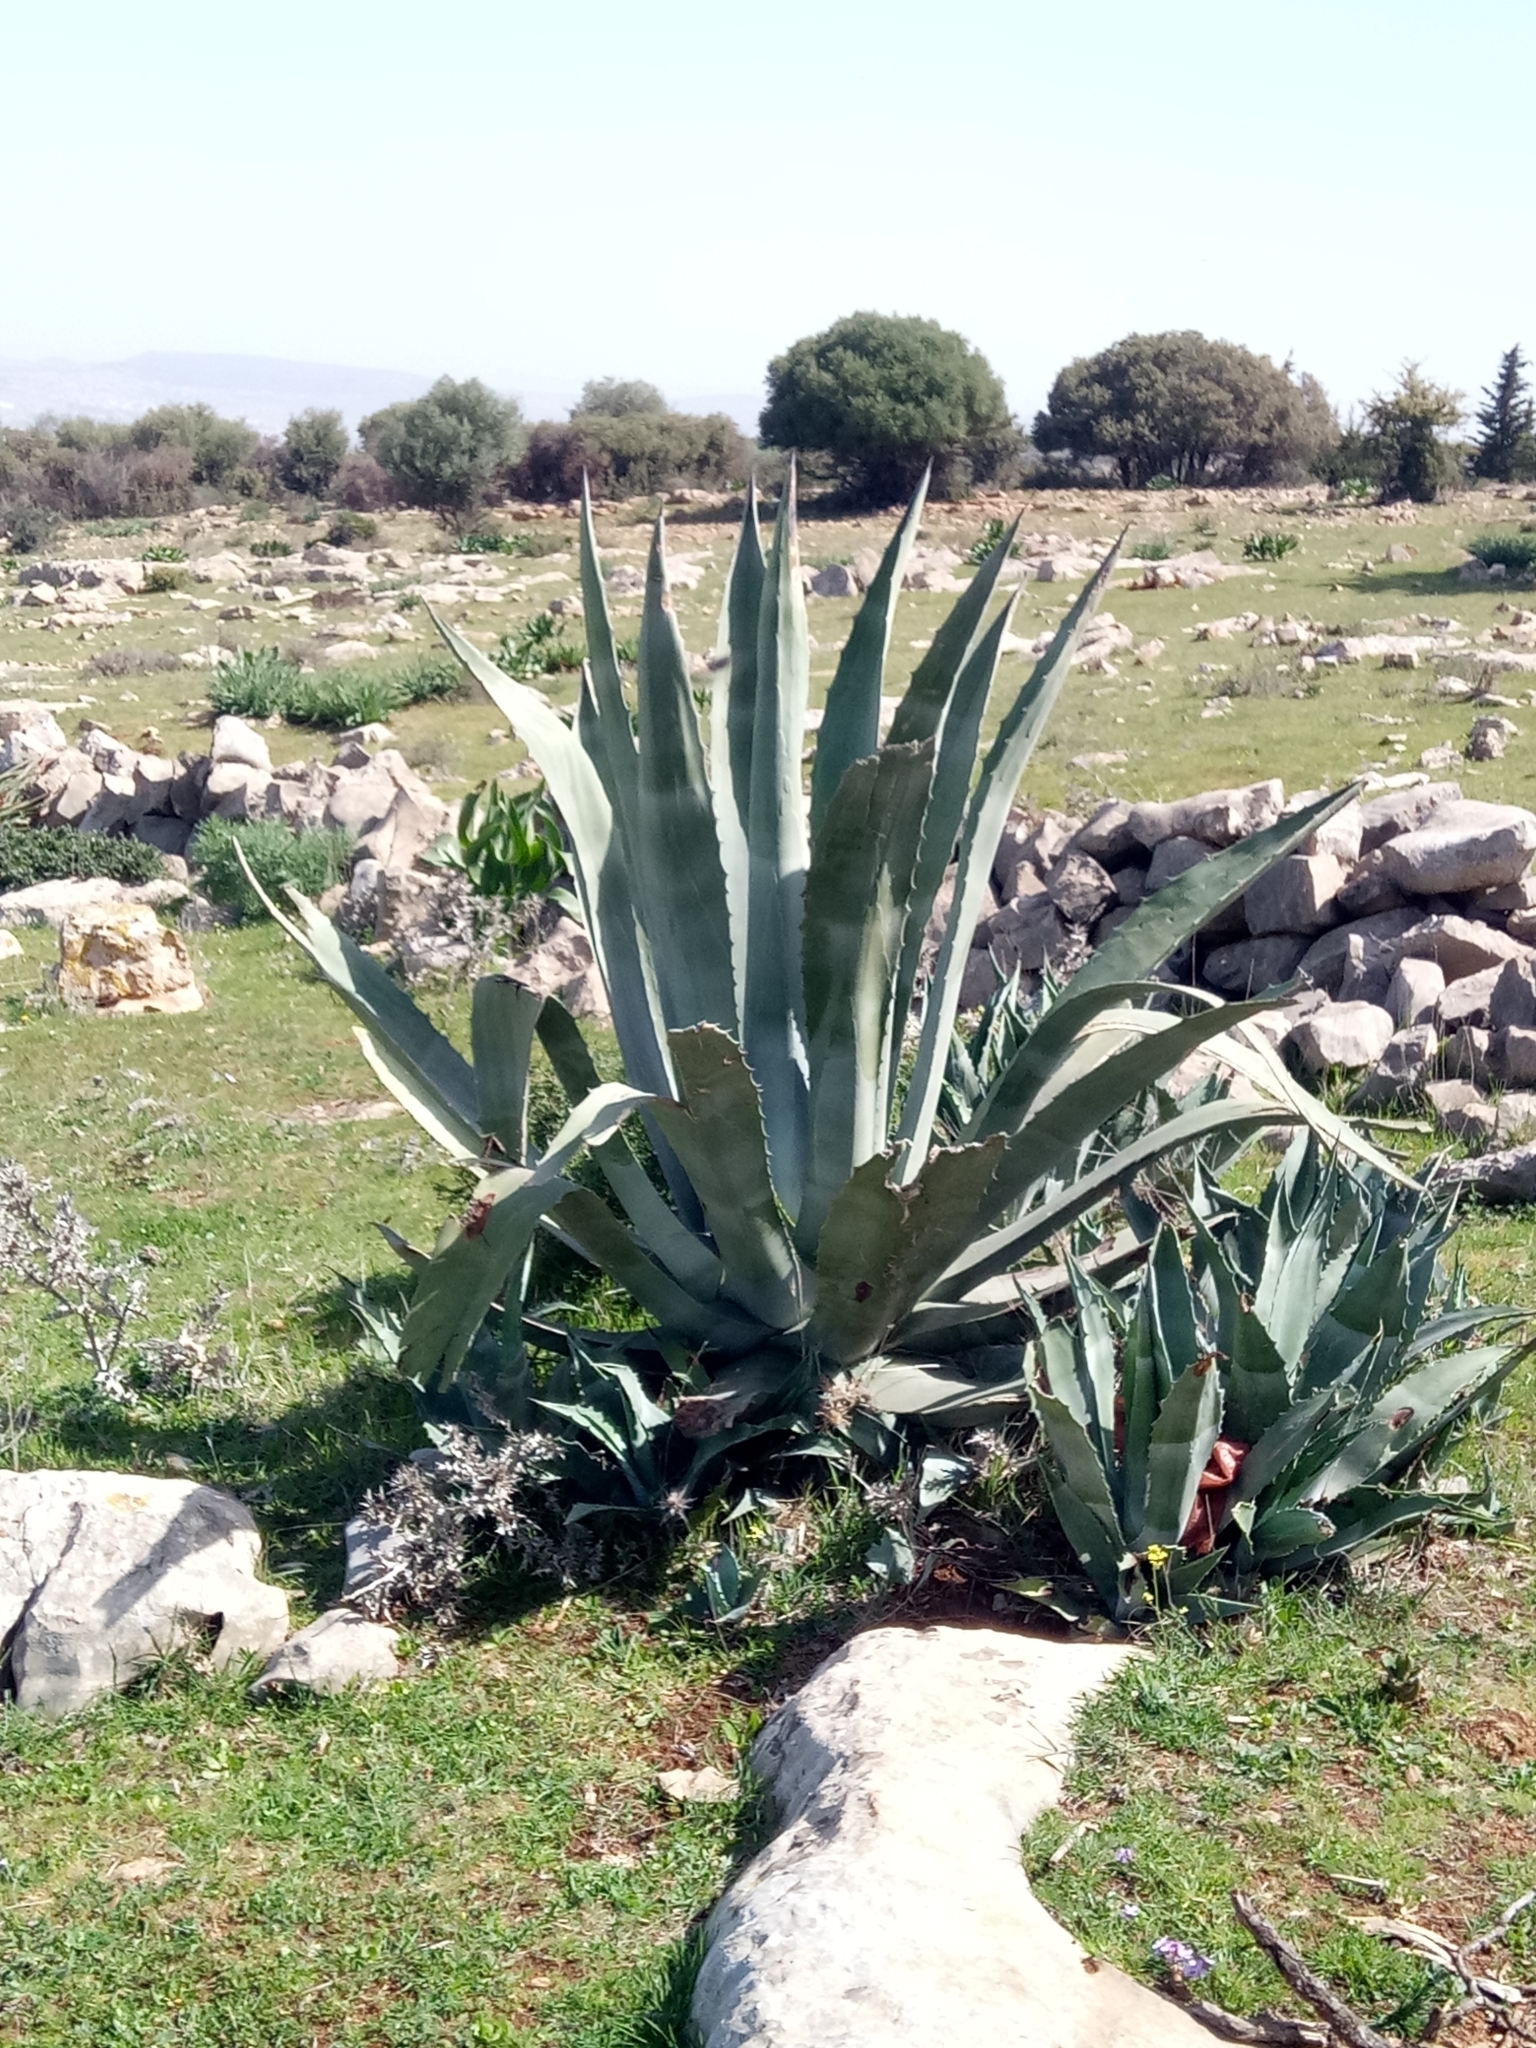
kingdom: Plantae
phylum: Tracheophyta
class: Liliopsida
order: Asparagales
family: Asparagaceae
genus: Agave
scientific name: Agave americana
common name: Centuryplant
